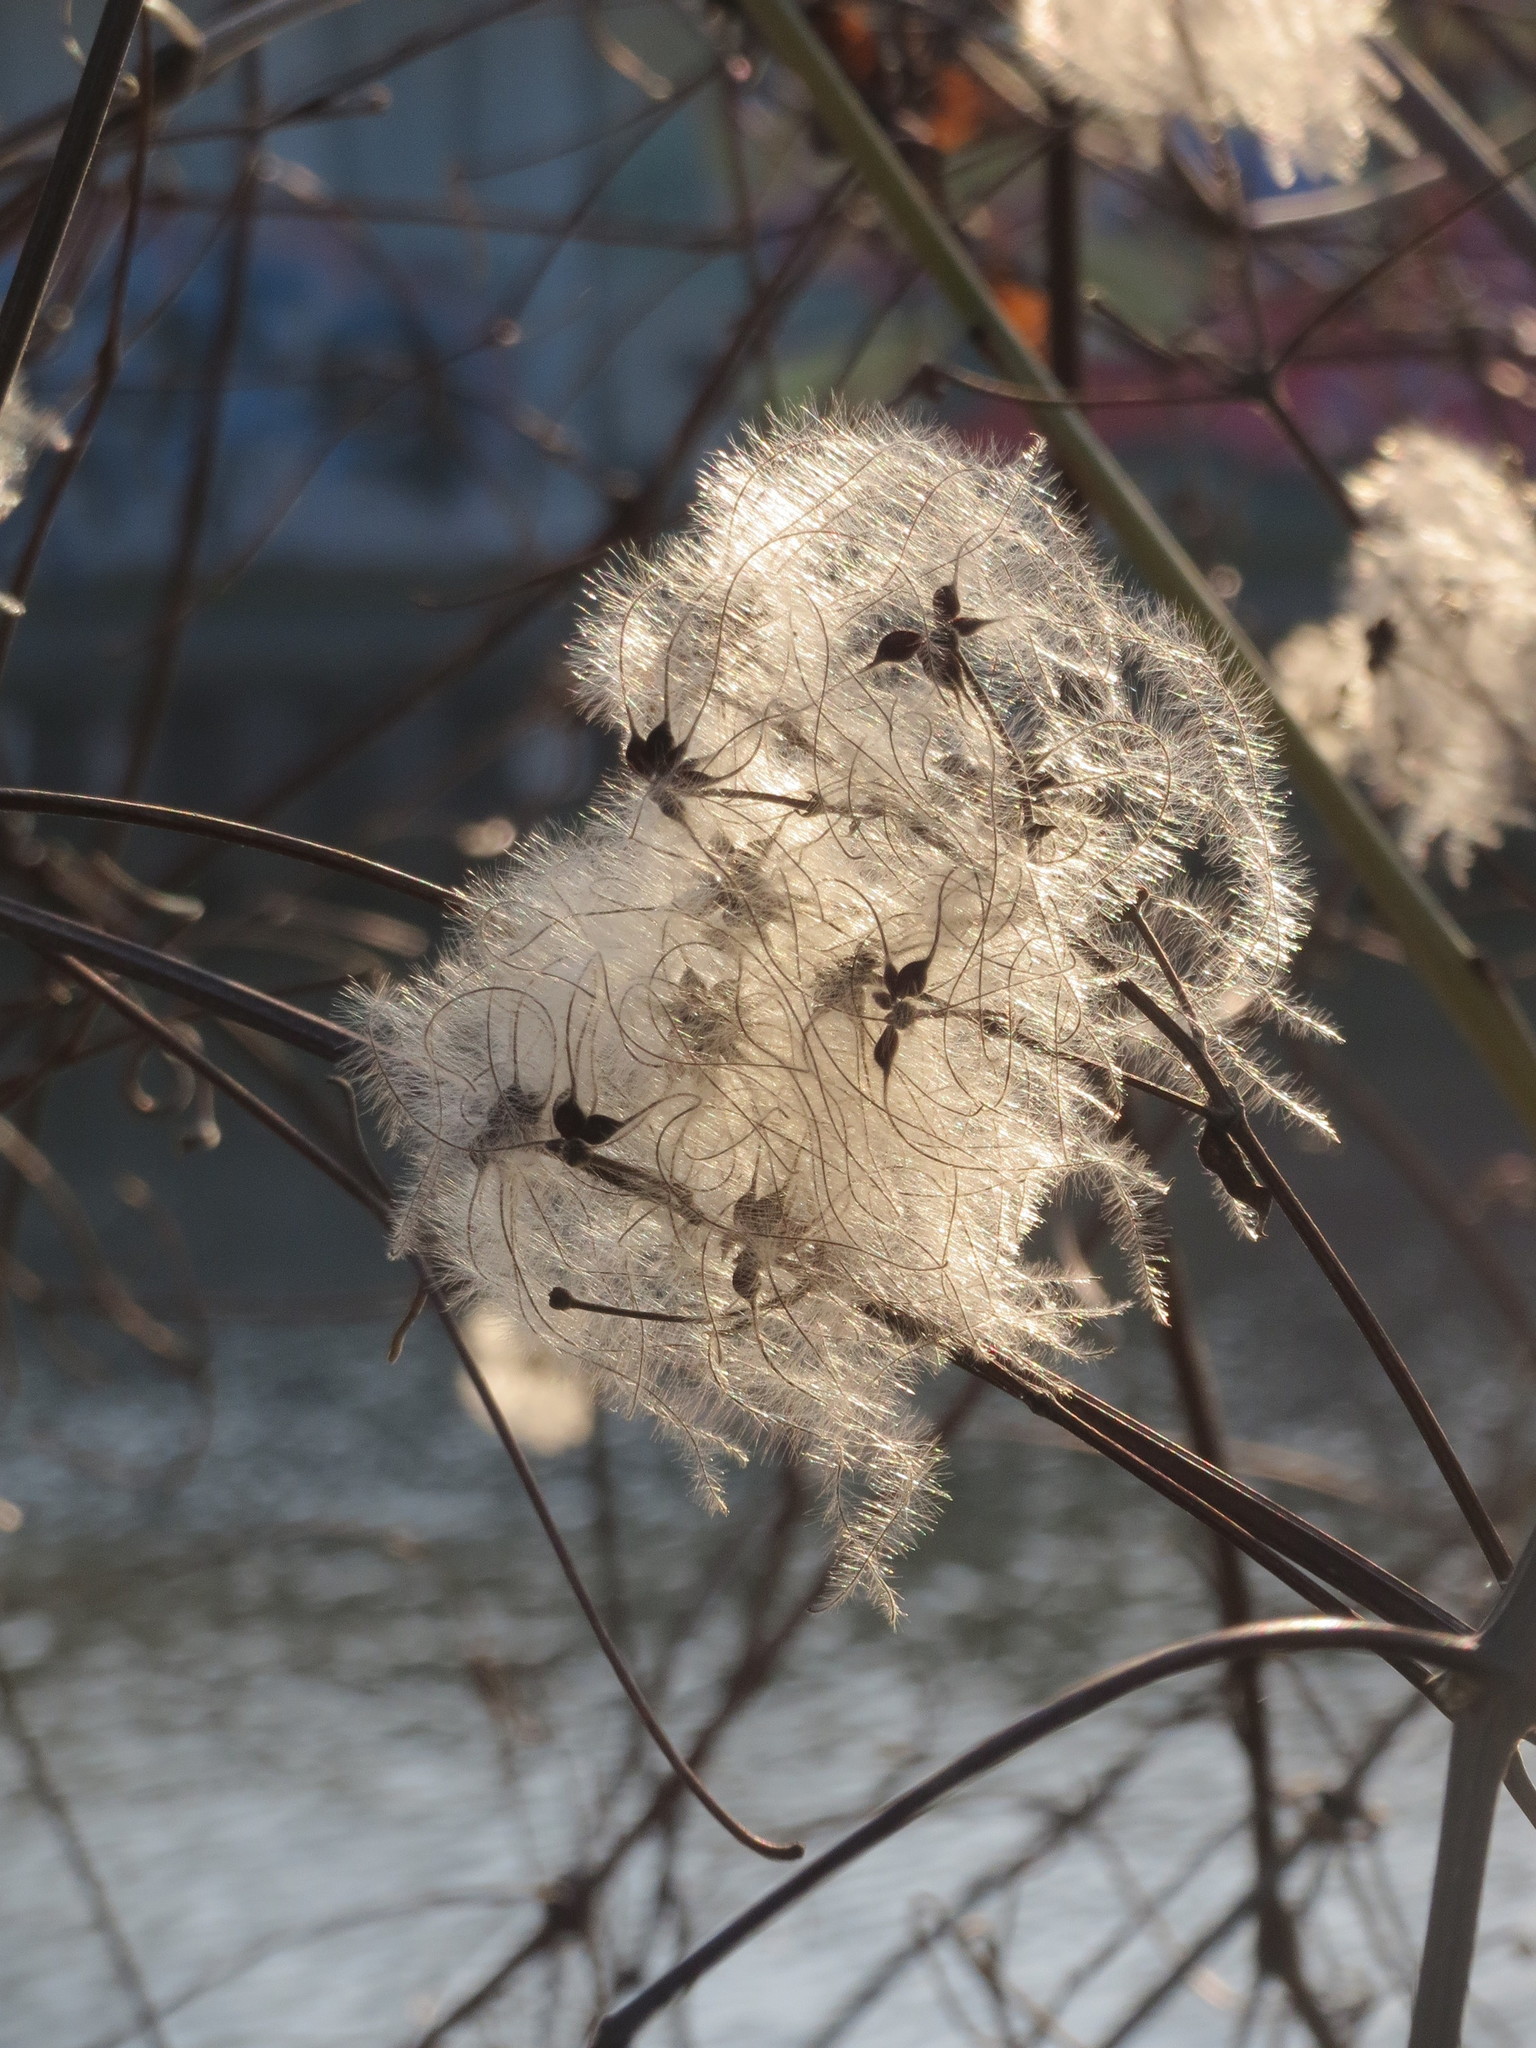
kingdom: Plantae
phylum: Tracheophyta
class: Magnoliopsida
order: Ranunculales
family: Ranunculaceae
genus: Clematis
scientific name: Clematis vitalba
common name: Evergreen clematis
